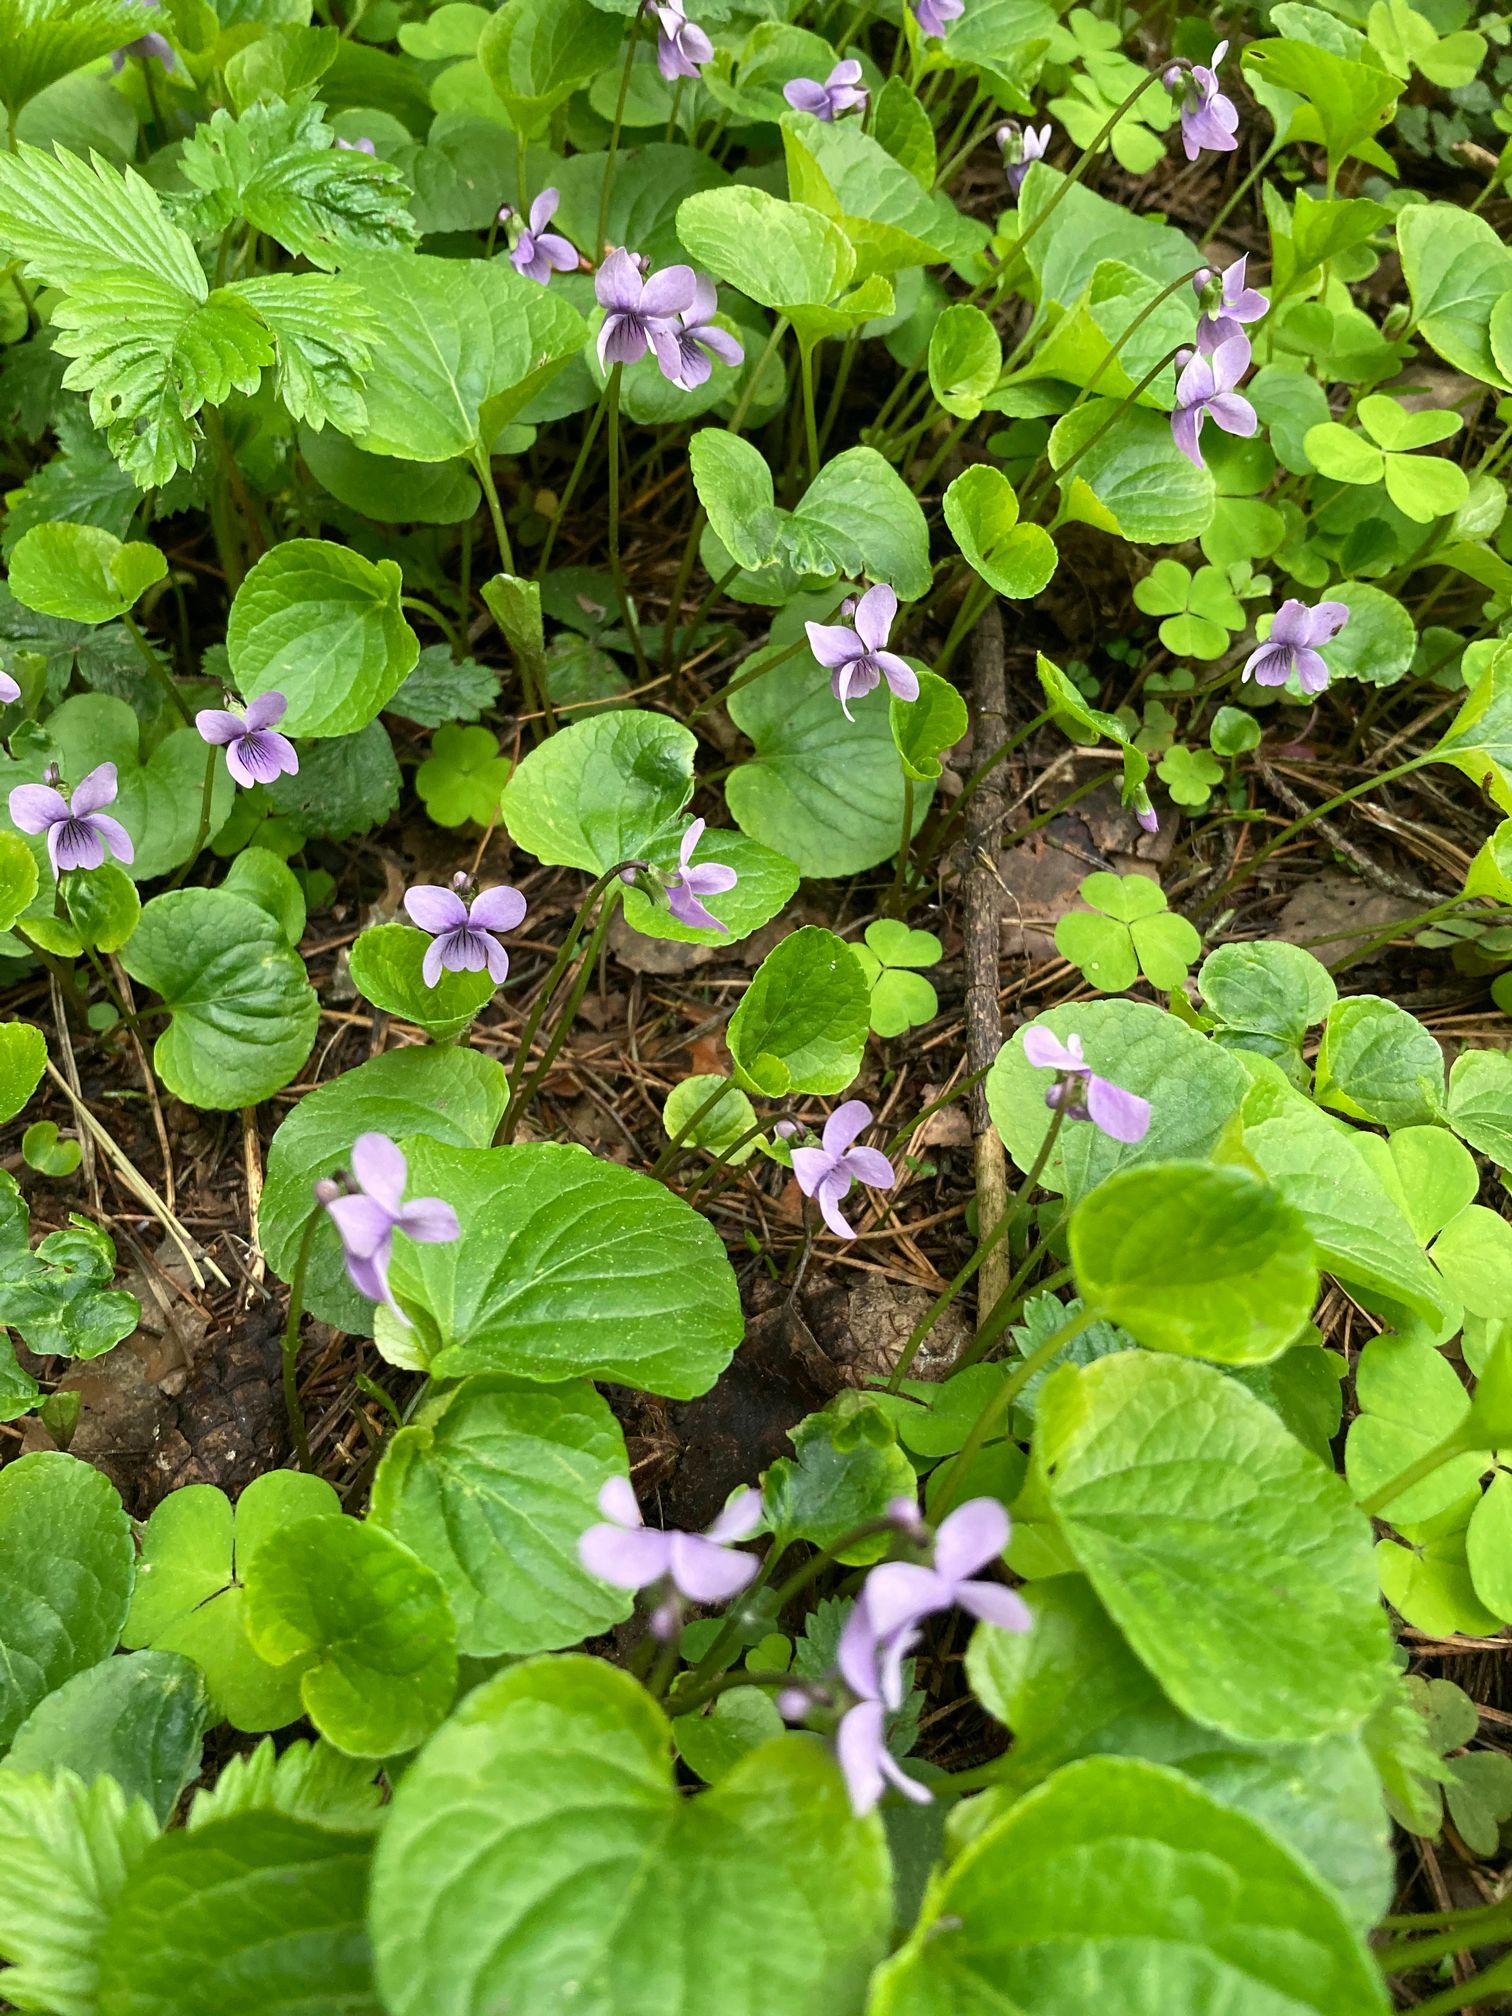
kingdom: Plantae
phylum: Tracheophyta
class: Magnoliopsida
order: Malpighiales
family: Violaceae
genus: Viola
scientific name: Viola palustris
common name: Marsh violet
